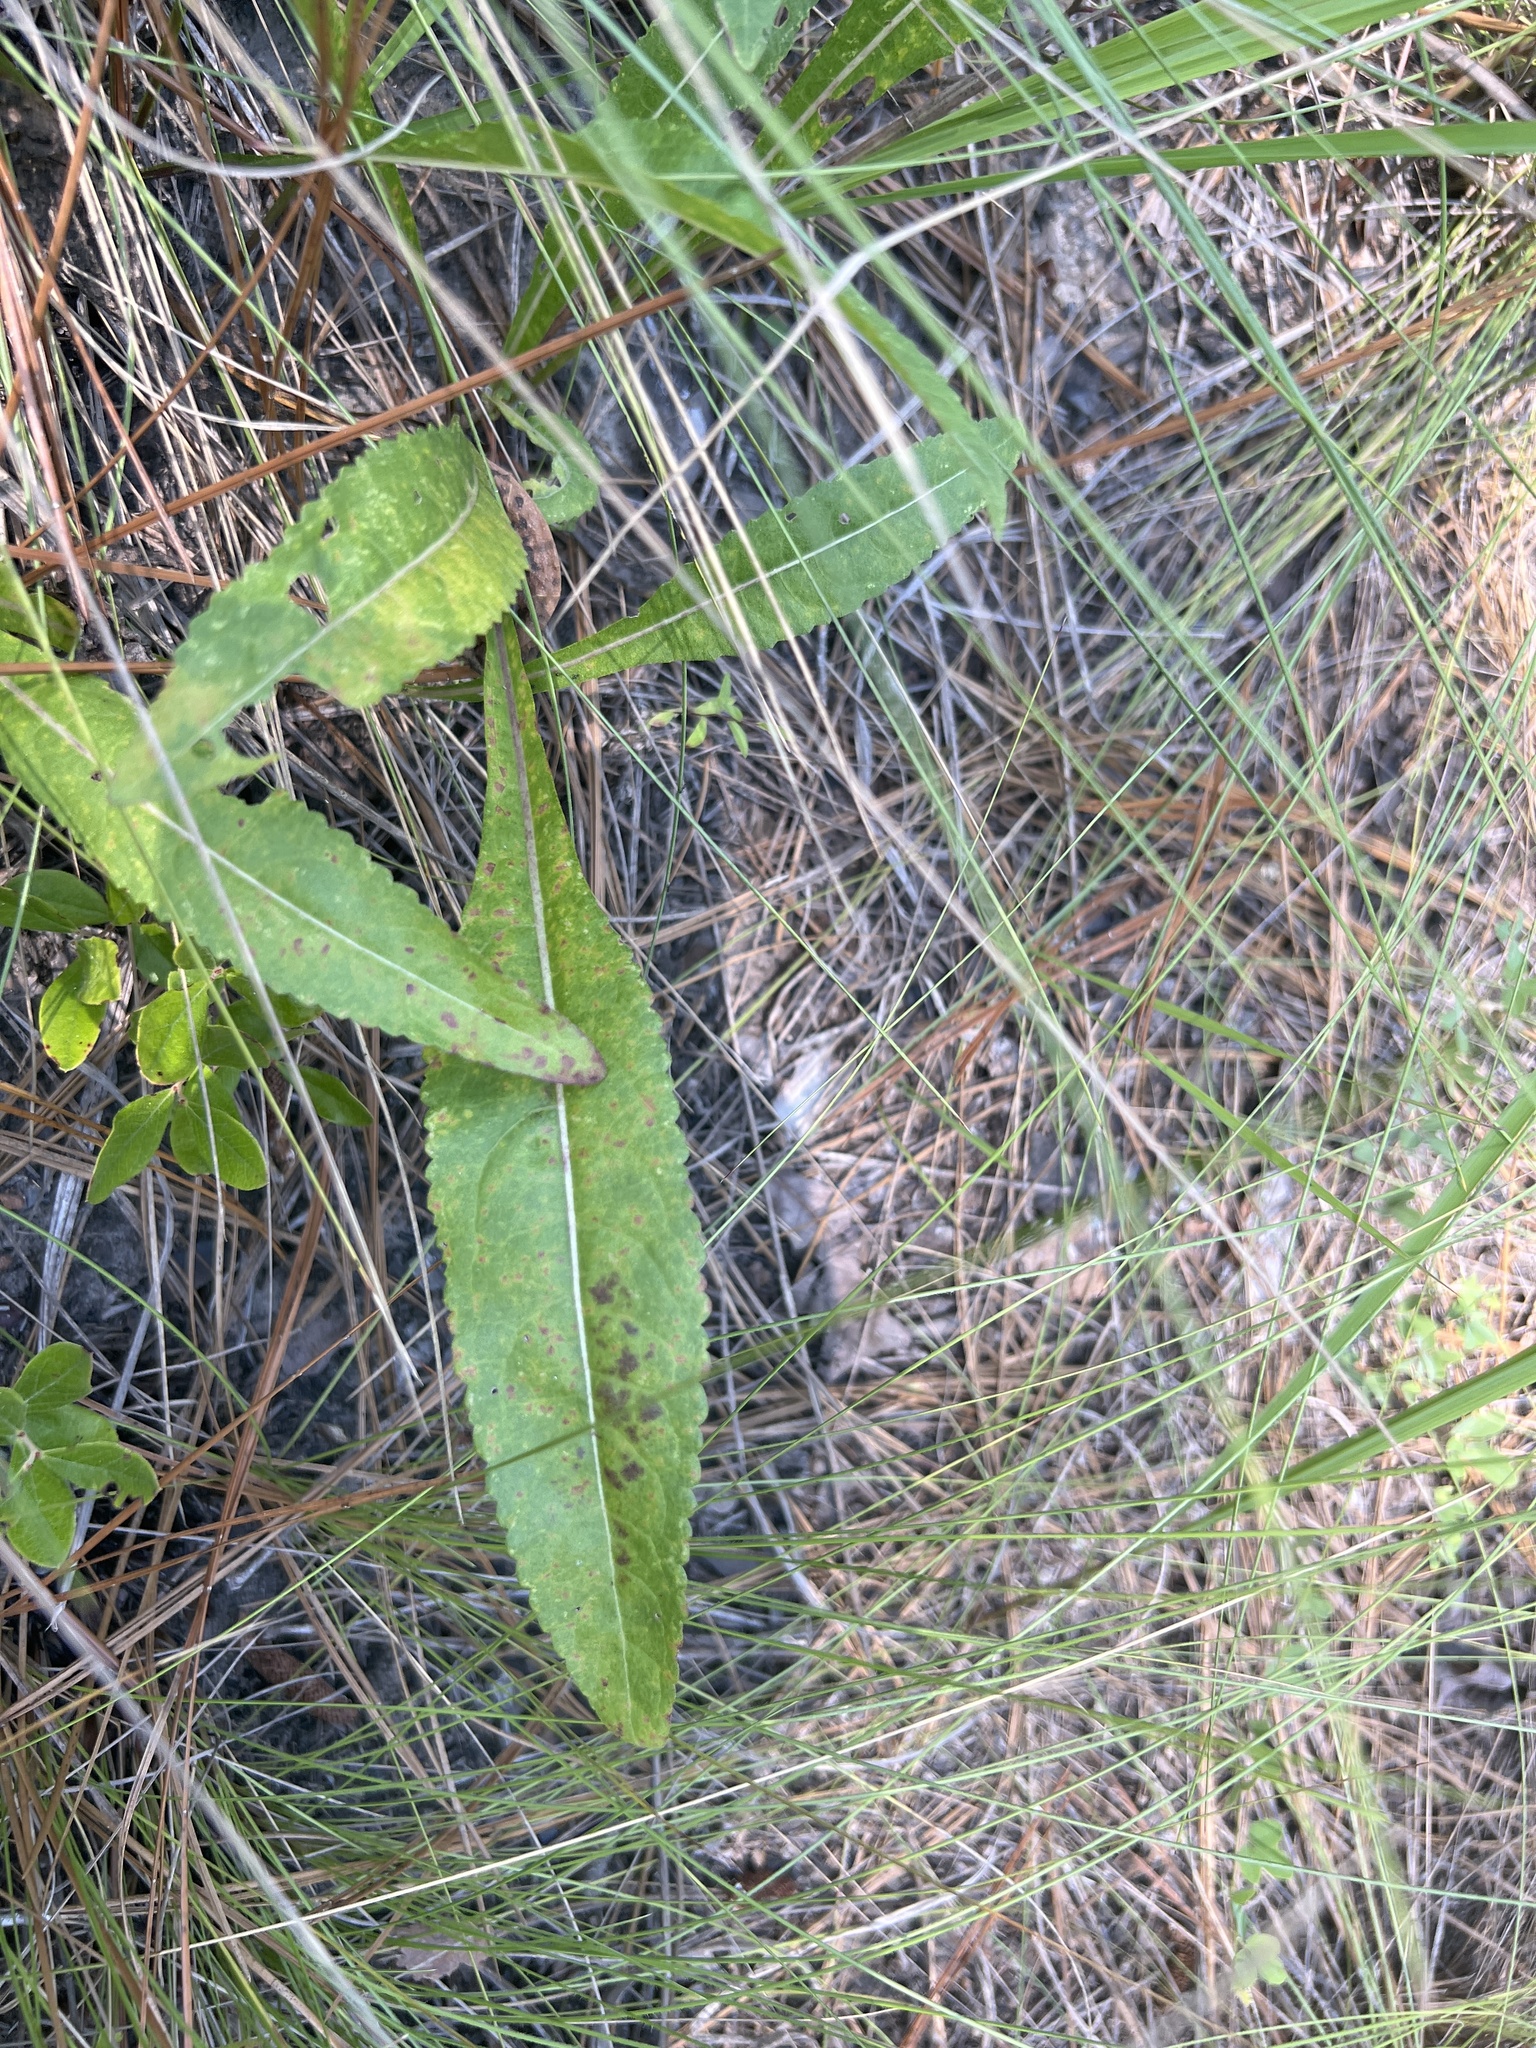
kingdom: Plantae
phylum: Tracheophyta
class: Magnoliopsida
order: Asterales
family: Asteraceae
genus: Parthenium
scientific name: Parthenium integrifolium
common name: American feverfew
